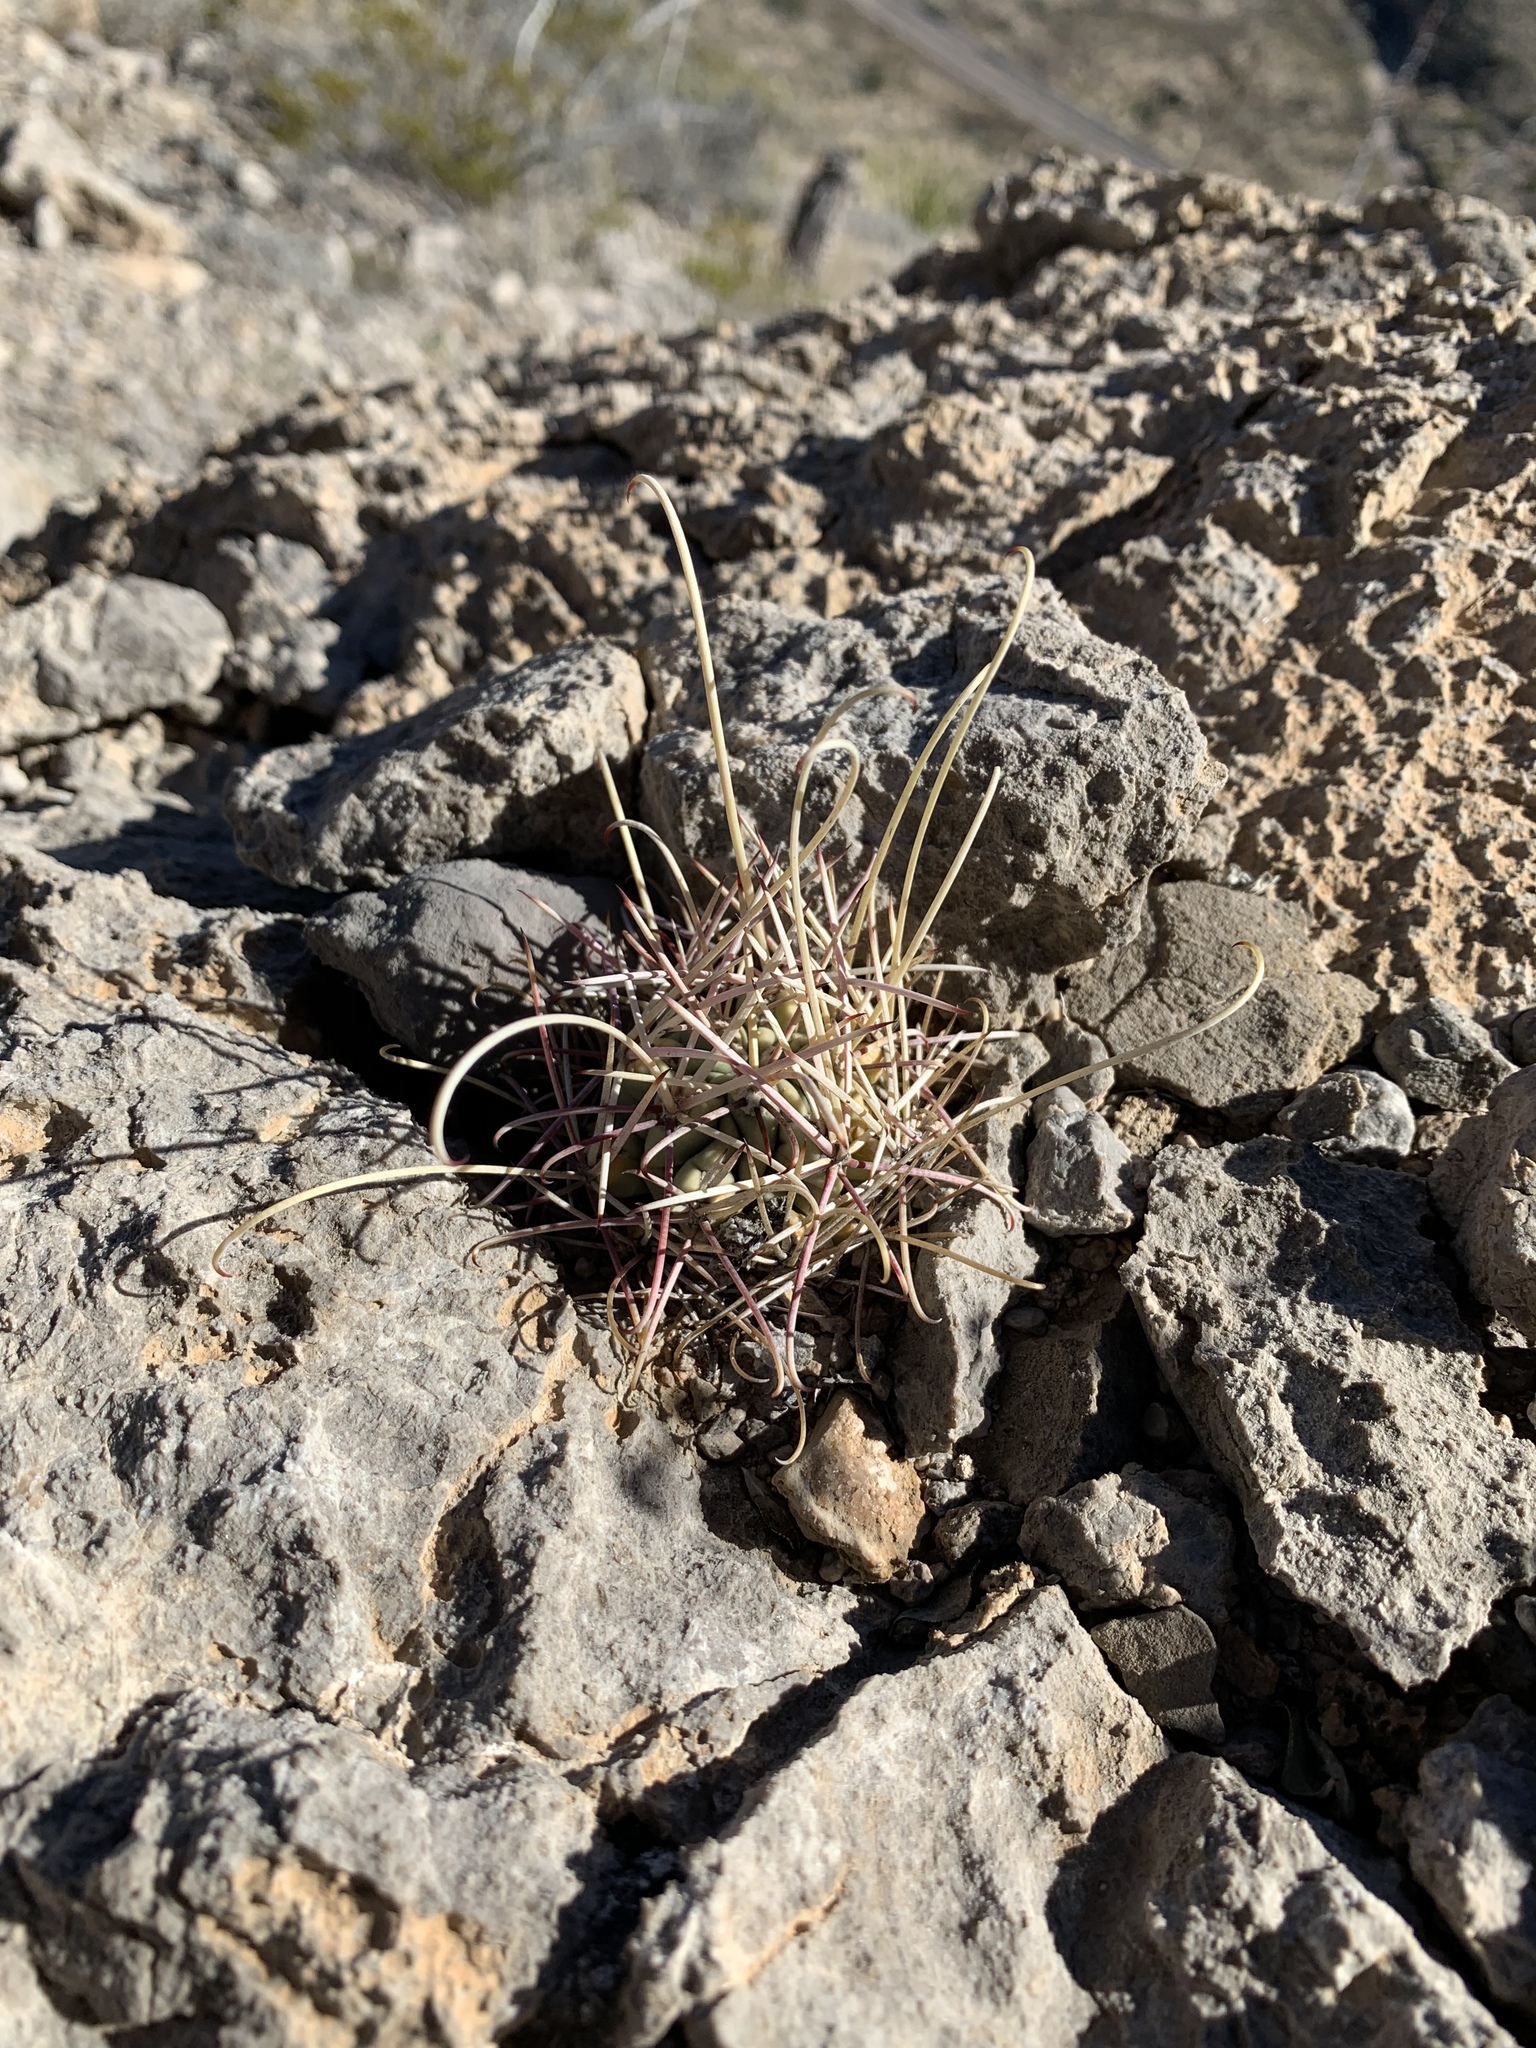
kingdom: Plantae
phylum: Tracheophyta
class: Magnoliopsida
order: Caryophyllales
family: Cactaceae
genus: Ferocactus
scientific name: Ferocactus uncinatus
